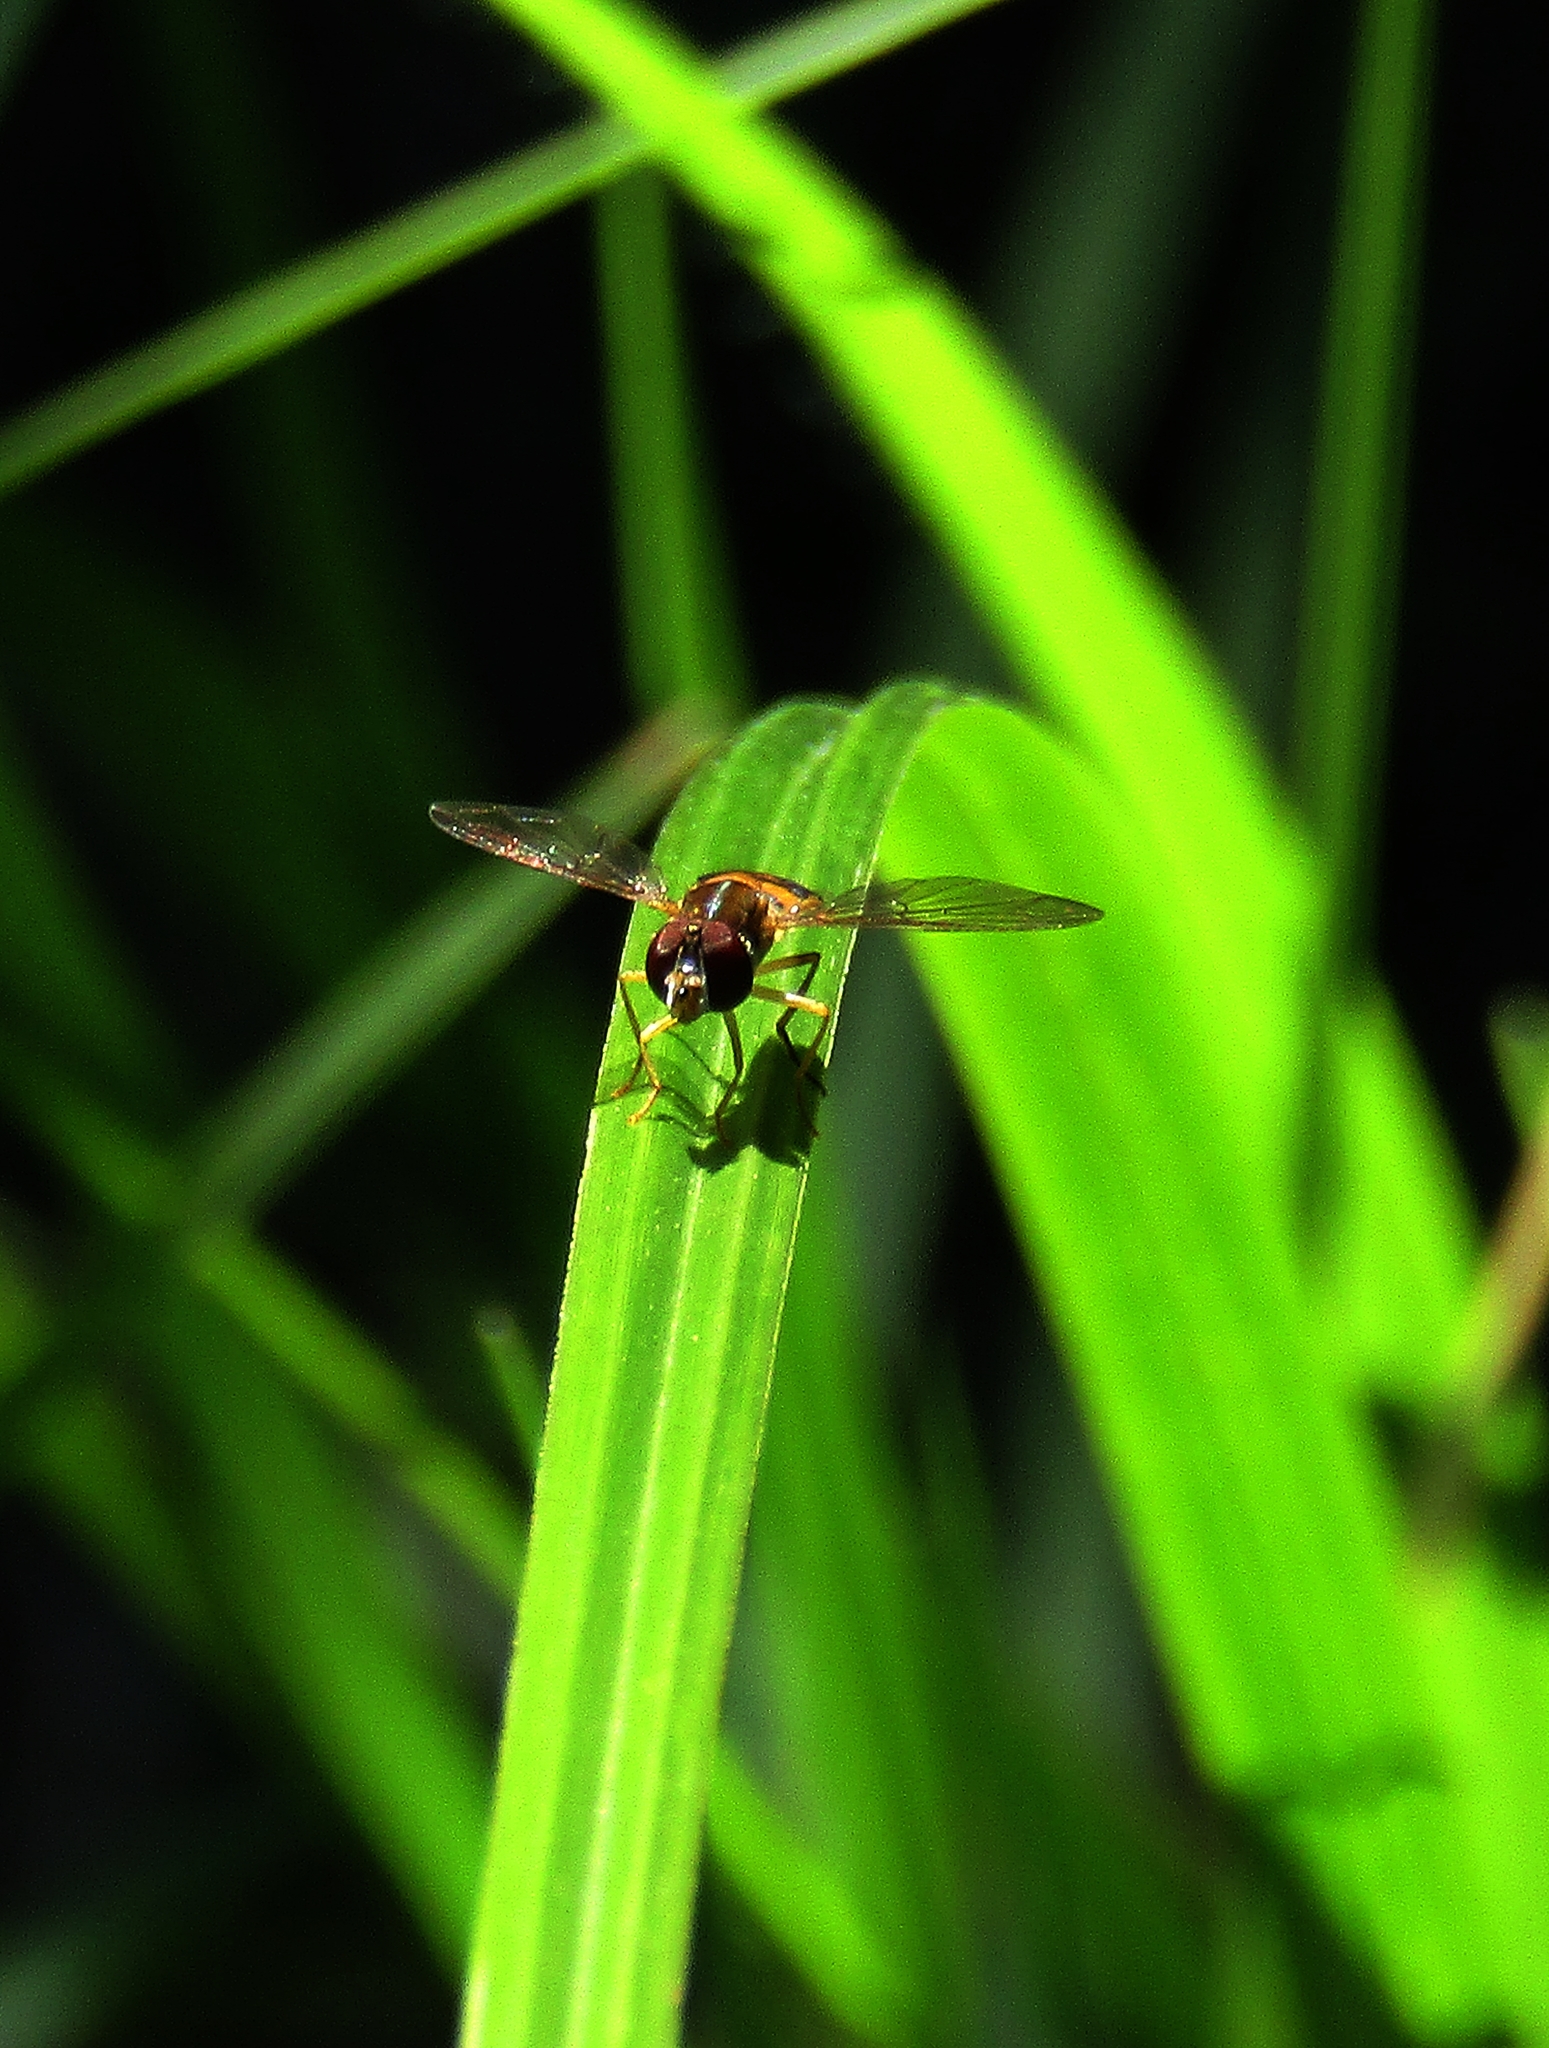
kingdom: Animalia
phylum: Arthropoda
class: Insecta
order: Diptera
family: Syrphidae
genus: Toxomerus
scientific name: Toxomerus
